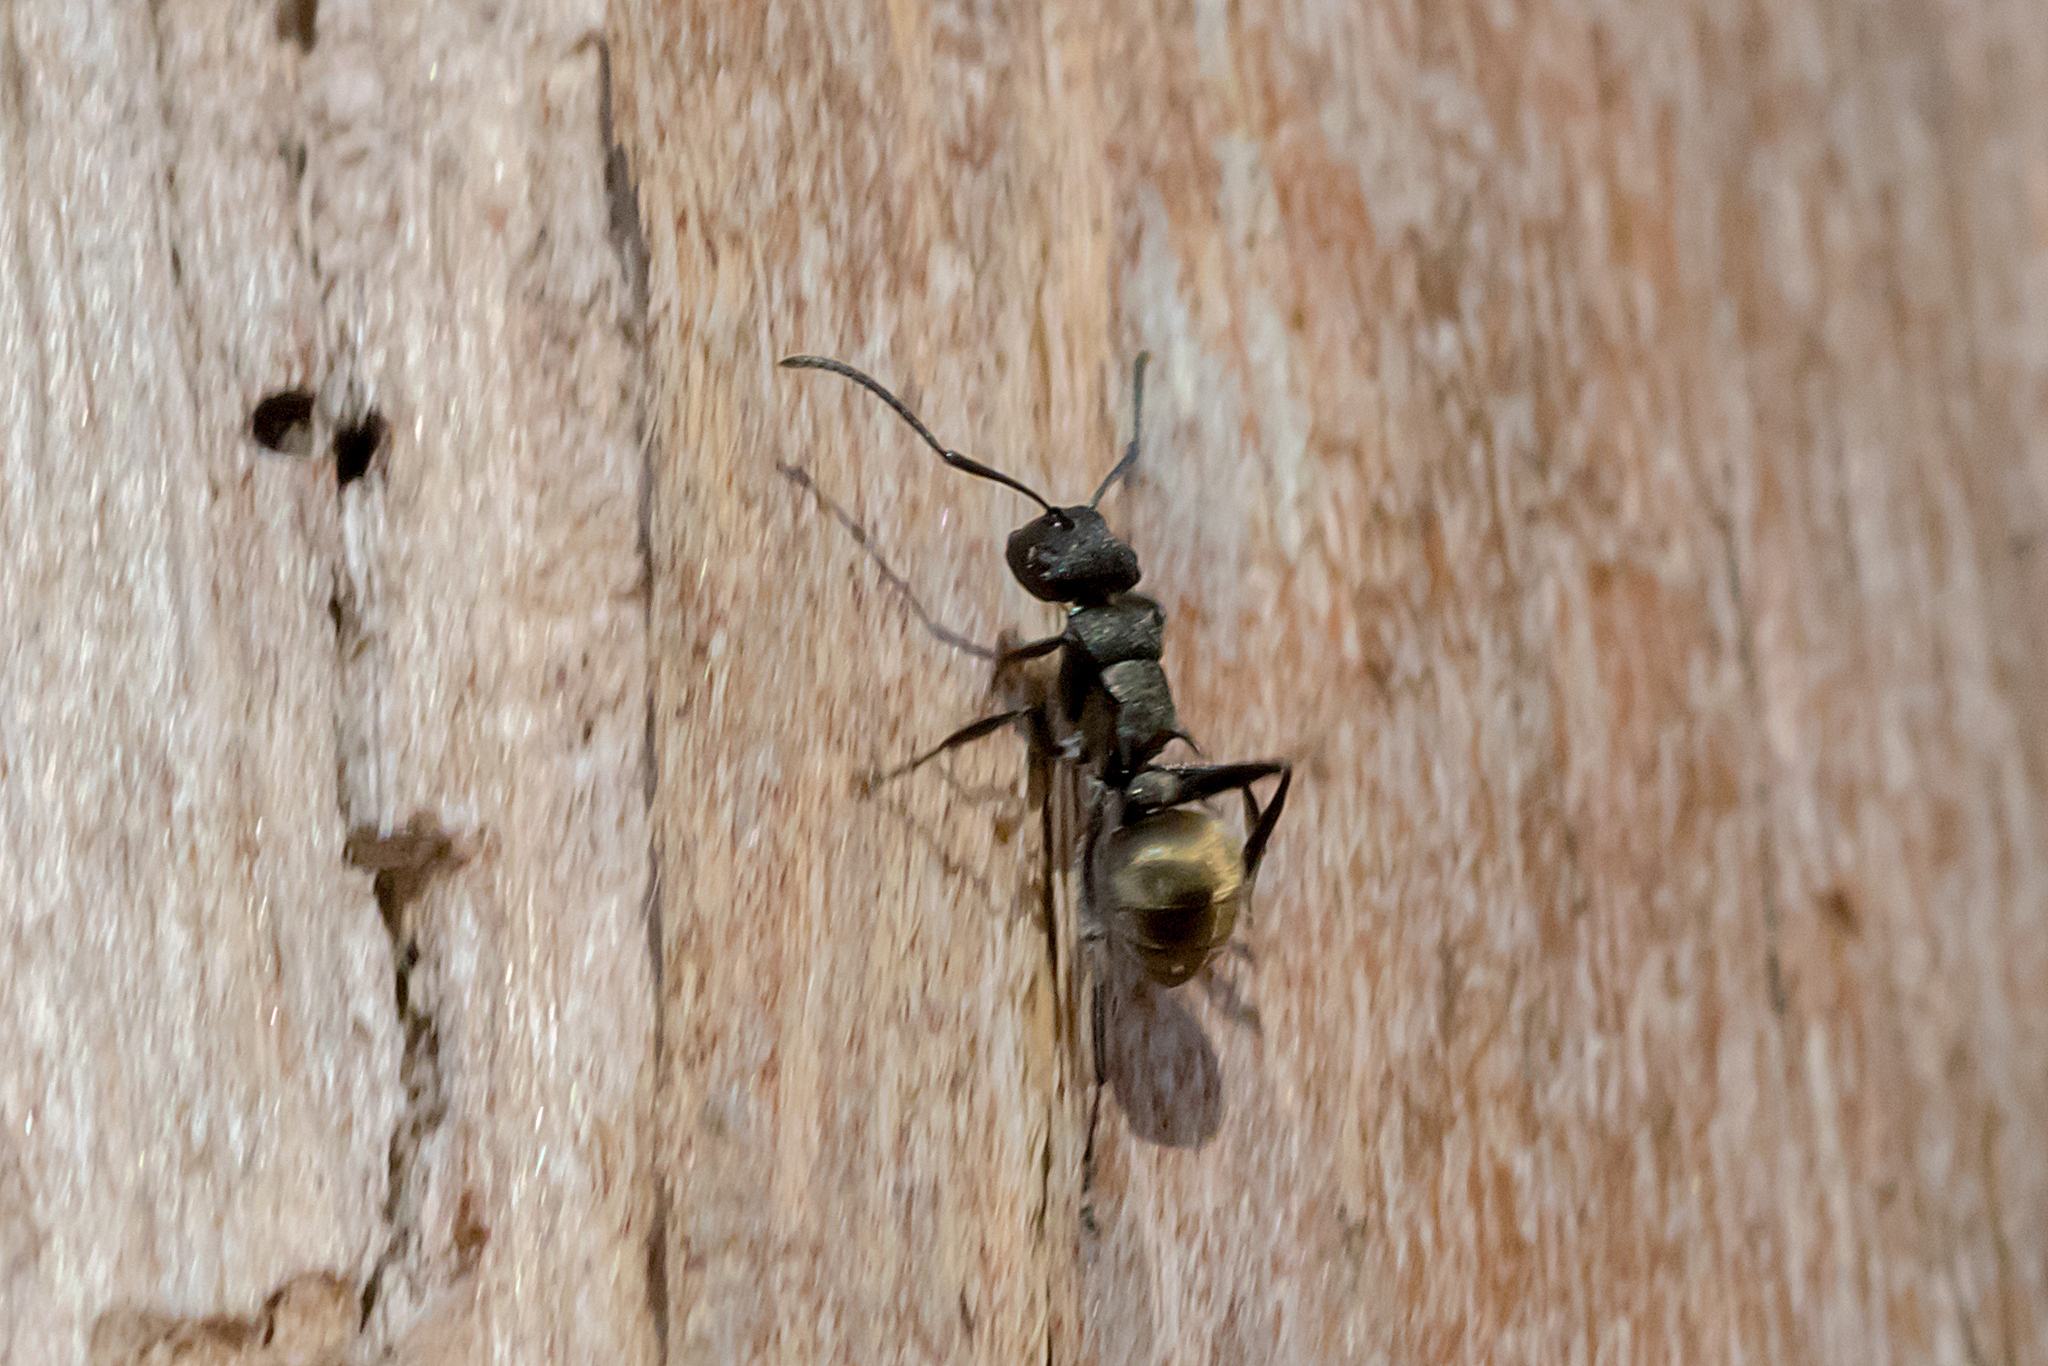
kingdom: Animalia
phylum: Arthropoda
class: Insecta
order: Hymenoptera
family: Formicidae
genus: Polyrhachis
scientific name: Polyrhachis mjobergi
